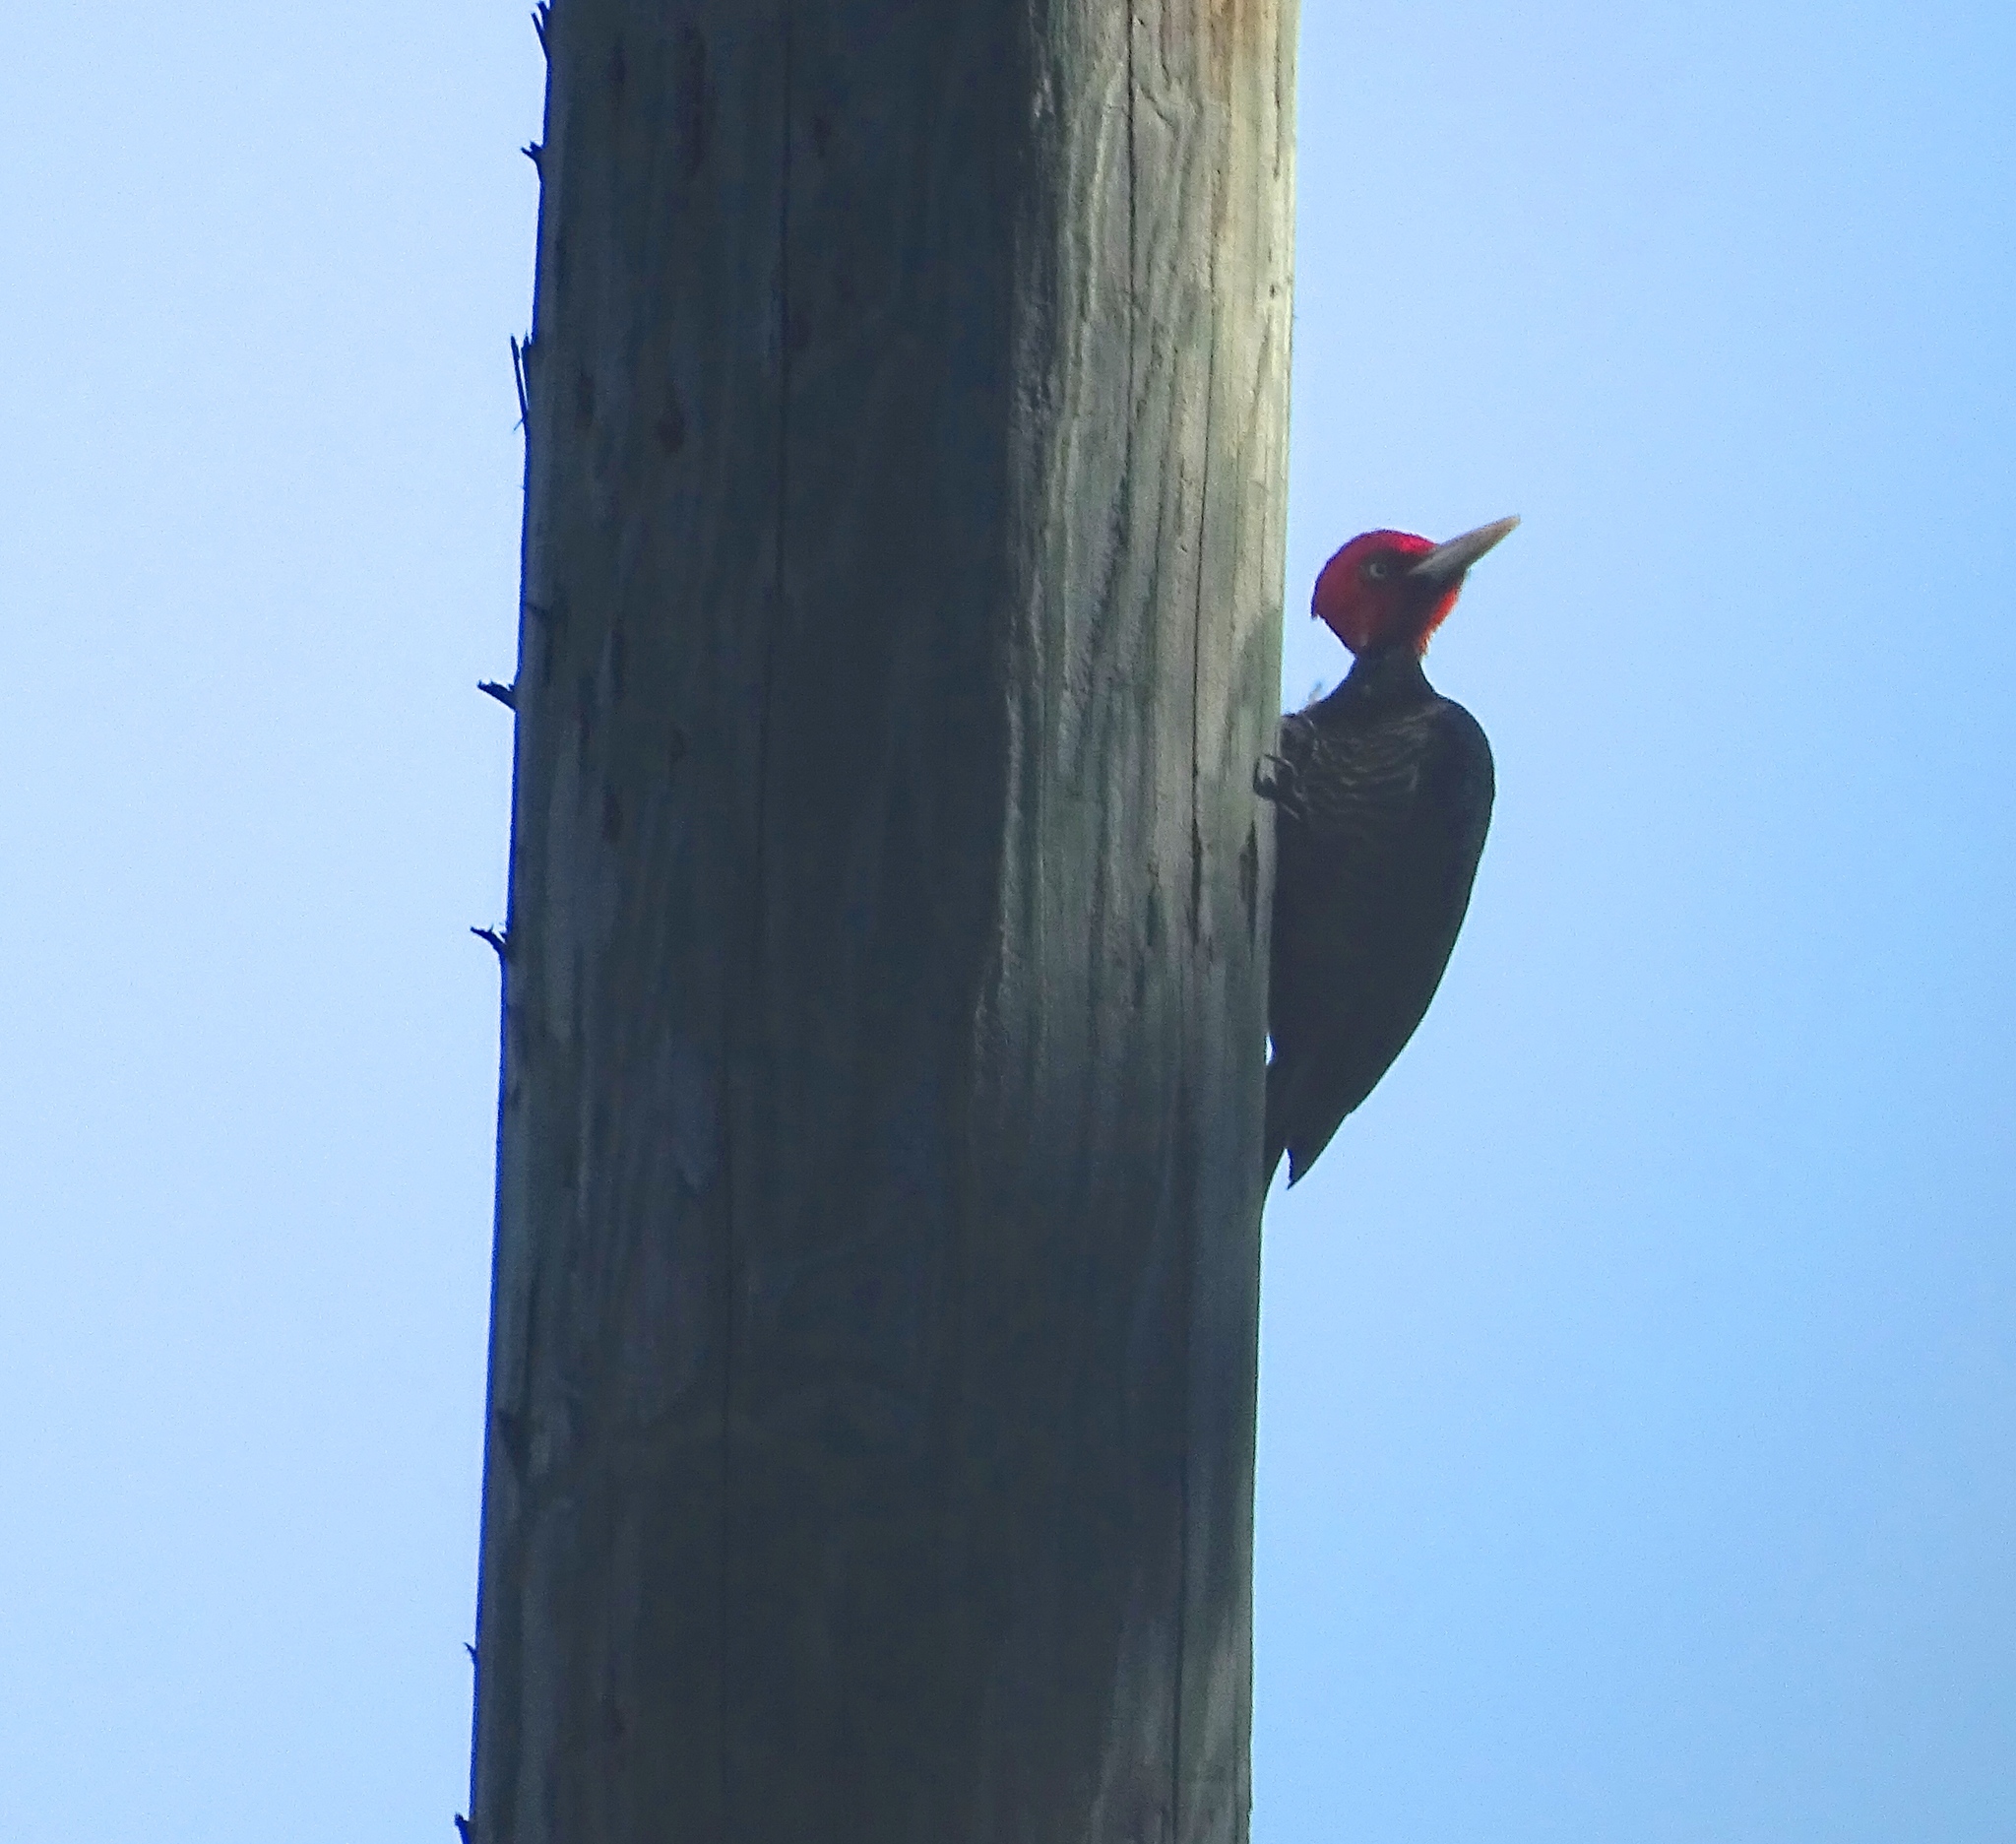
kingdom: Animalia
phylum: Chordata
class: Aves
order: Piciformes
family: Picidae
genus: Campephilus
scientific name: Campephilus guatemalensis
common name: Pale-billed woodpecker
